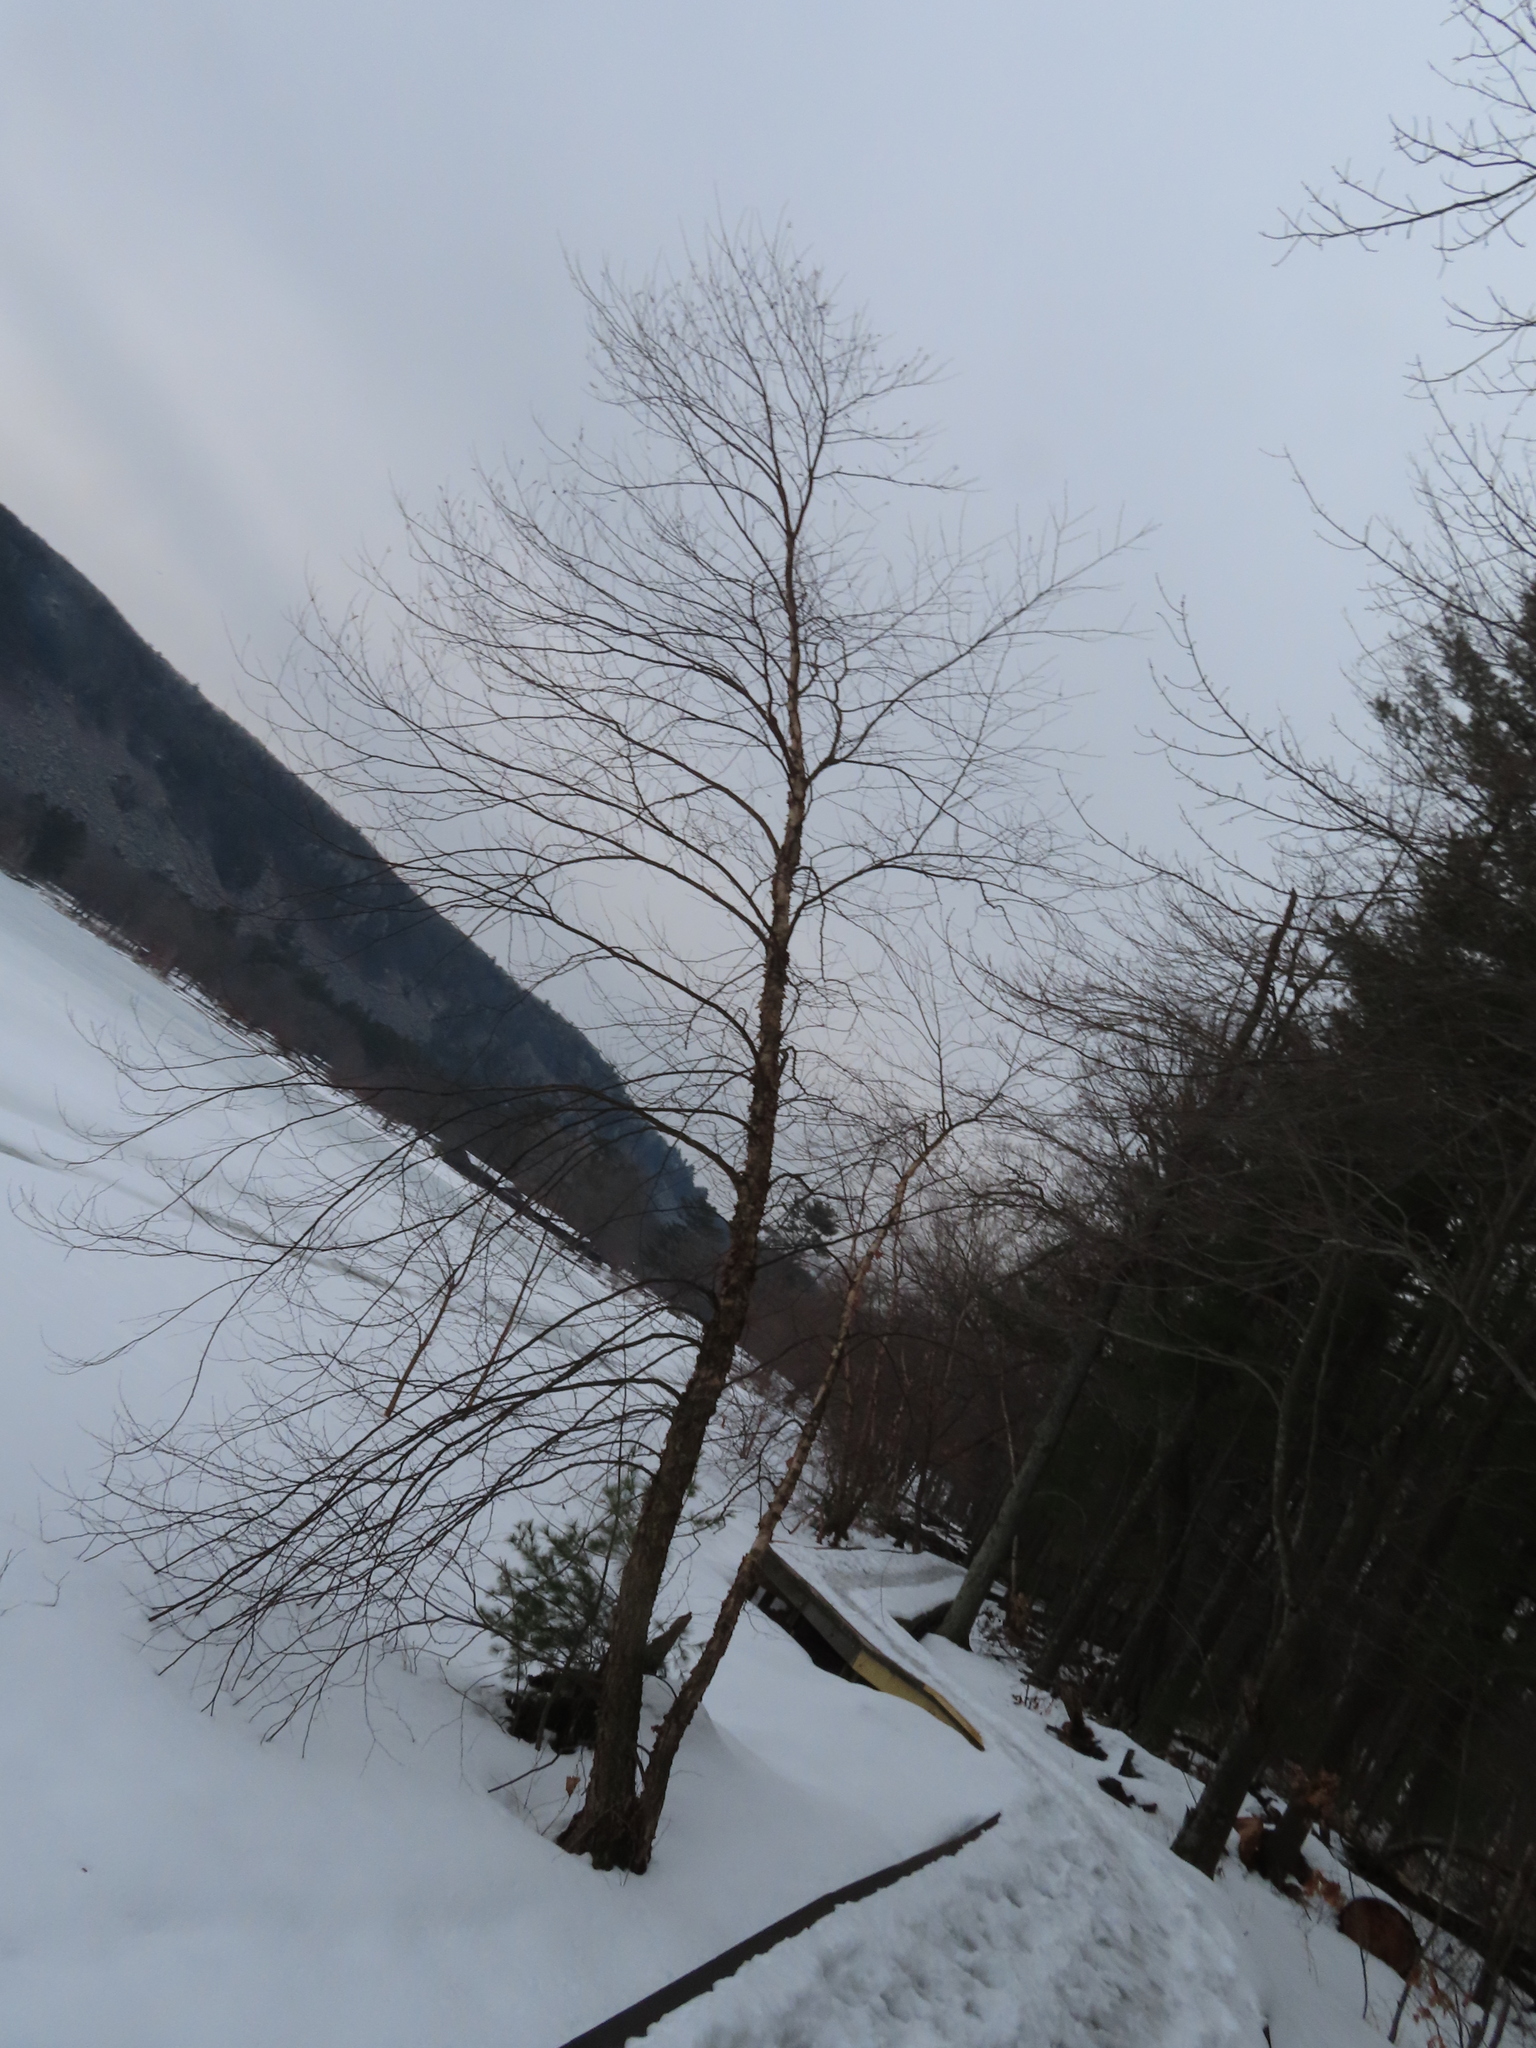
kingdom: Plantae
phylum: Tracheophyta
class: Magnoliopsida
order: Fagales
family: Betulaceae
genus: Betula
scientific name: Betula nigra
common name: Black birch
